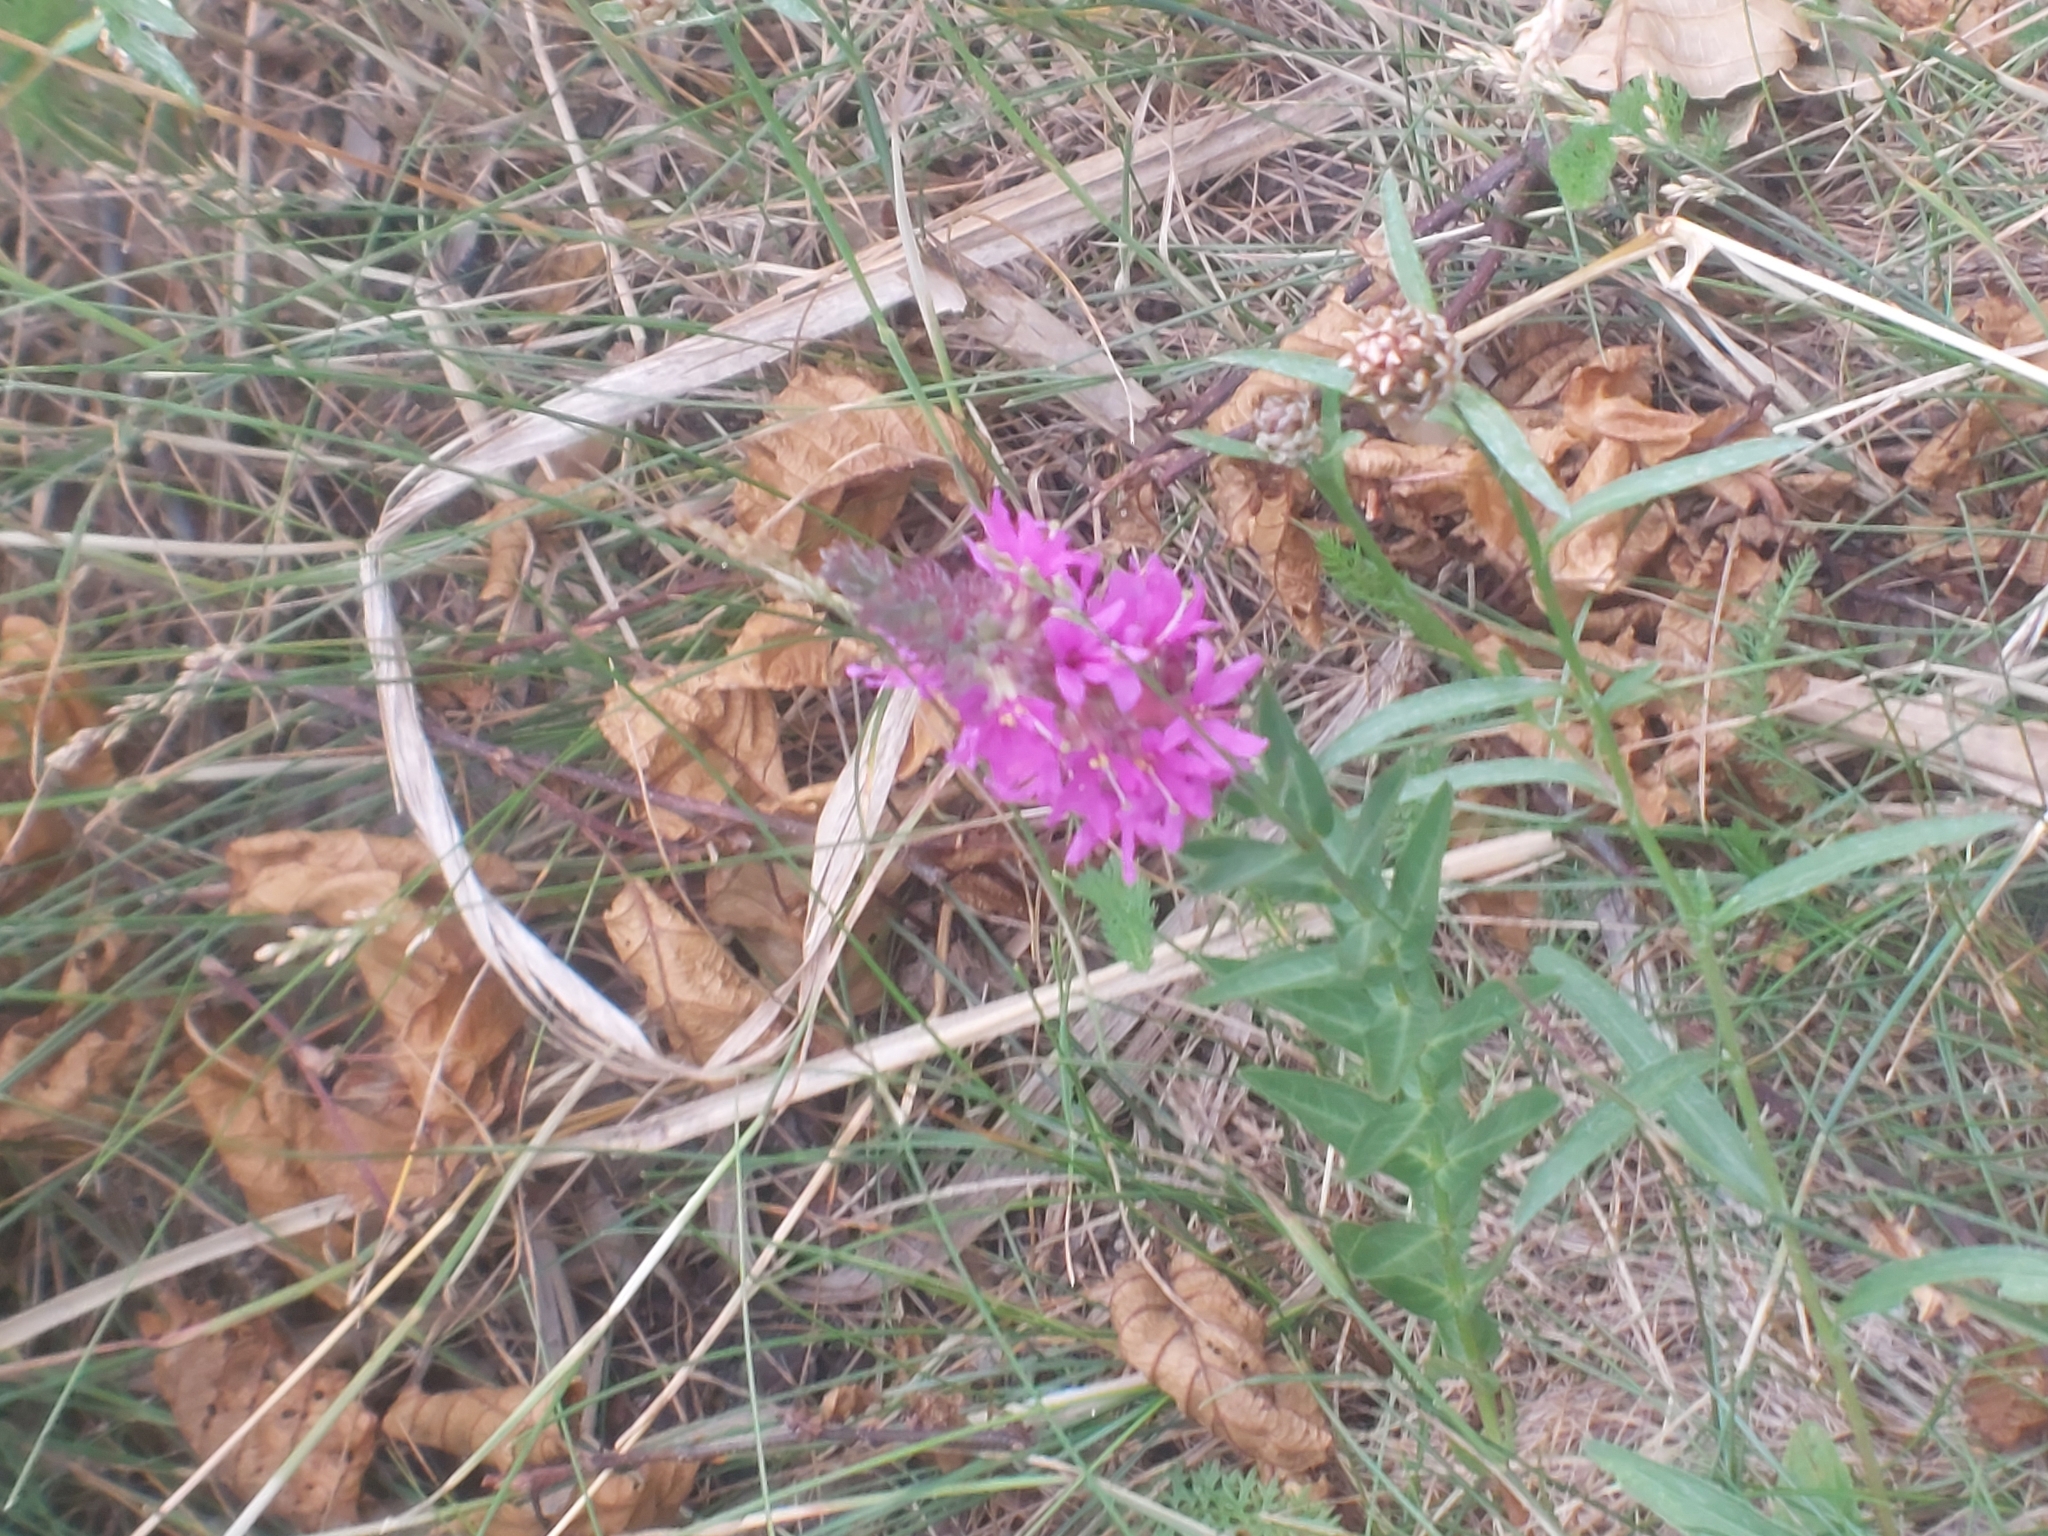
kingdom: Plantae
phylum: Tracheophyta
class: Magnoliopsida
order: Myrtales
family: Lythraceae
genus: Lythrum
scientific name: Lythrum salicaria
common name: Purple loosestrife
